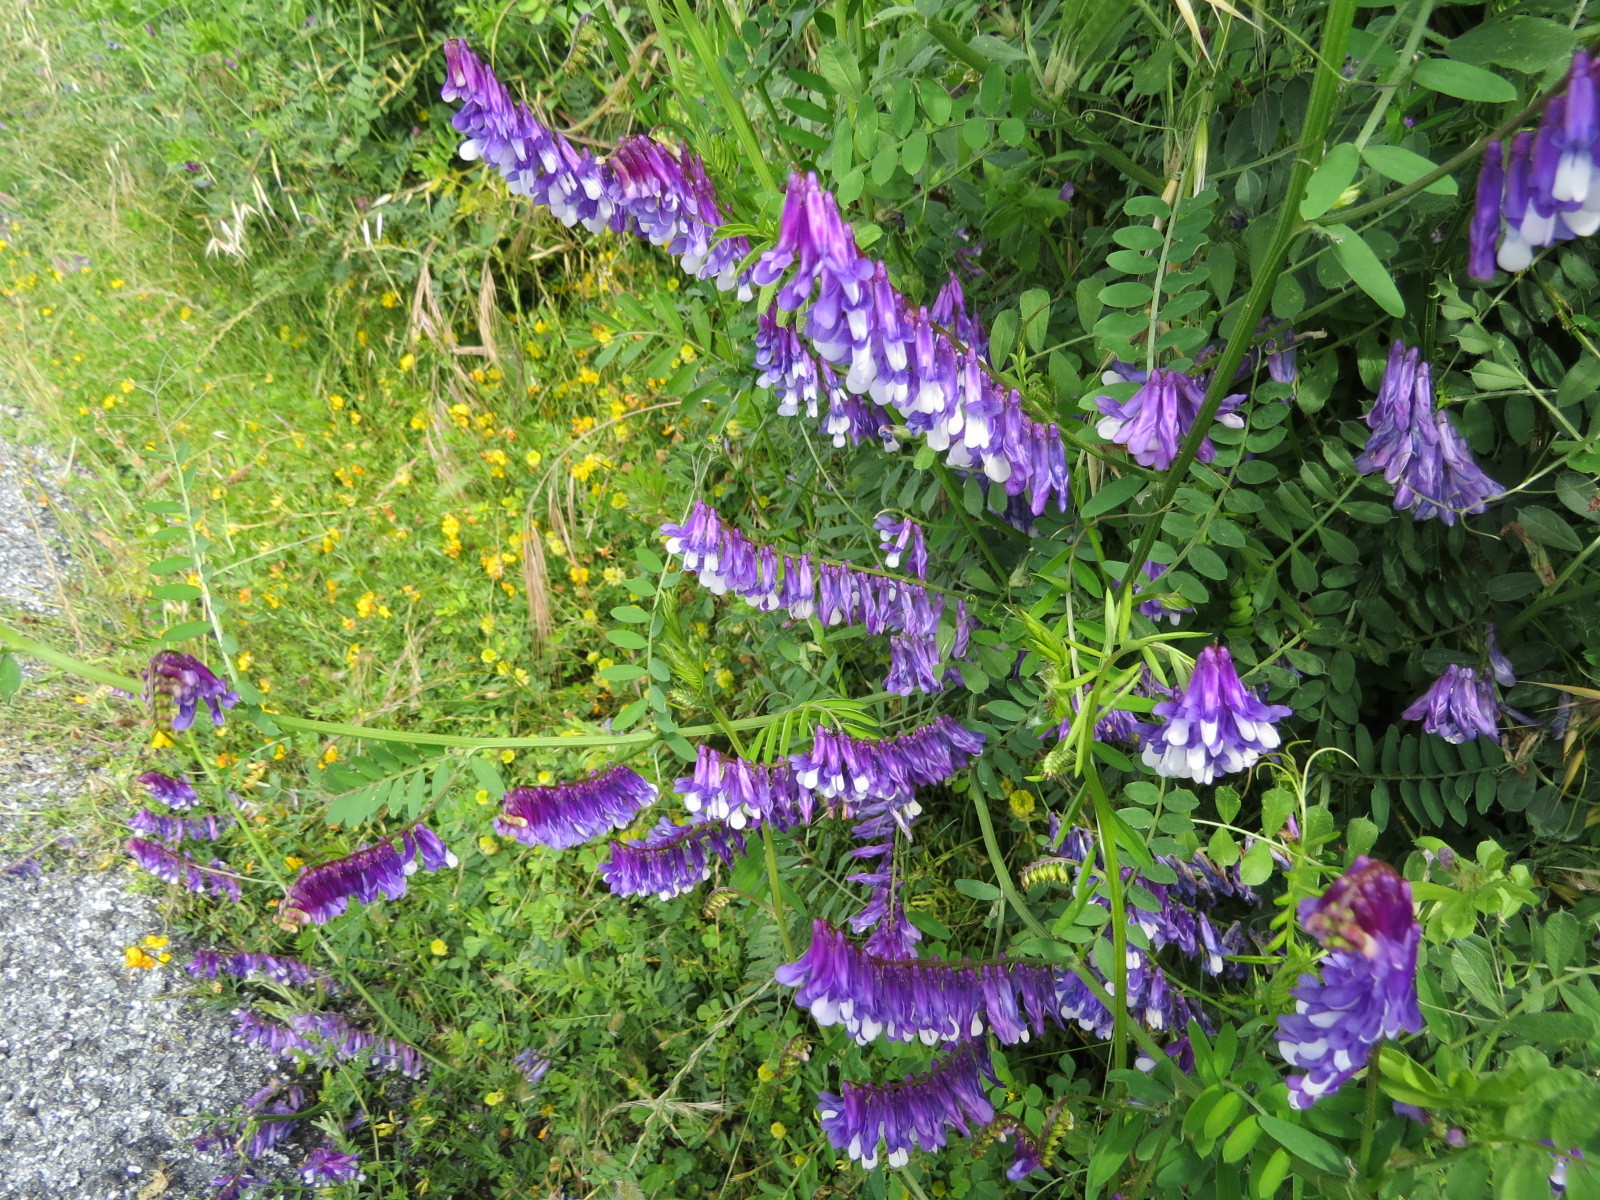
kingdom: Plantae
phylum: Tracheophyta
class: Magnoliopsida
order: Fabales
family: Fabaceae
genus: Vicia
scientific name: Vicia villosa
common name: Fodder vetch
